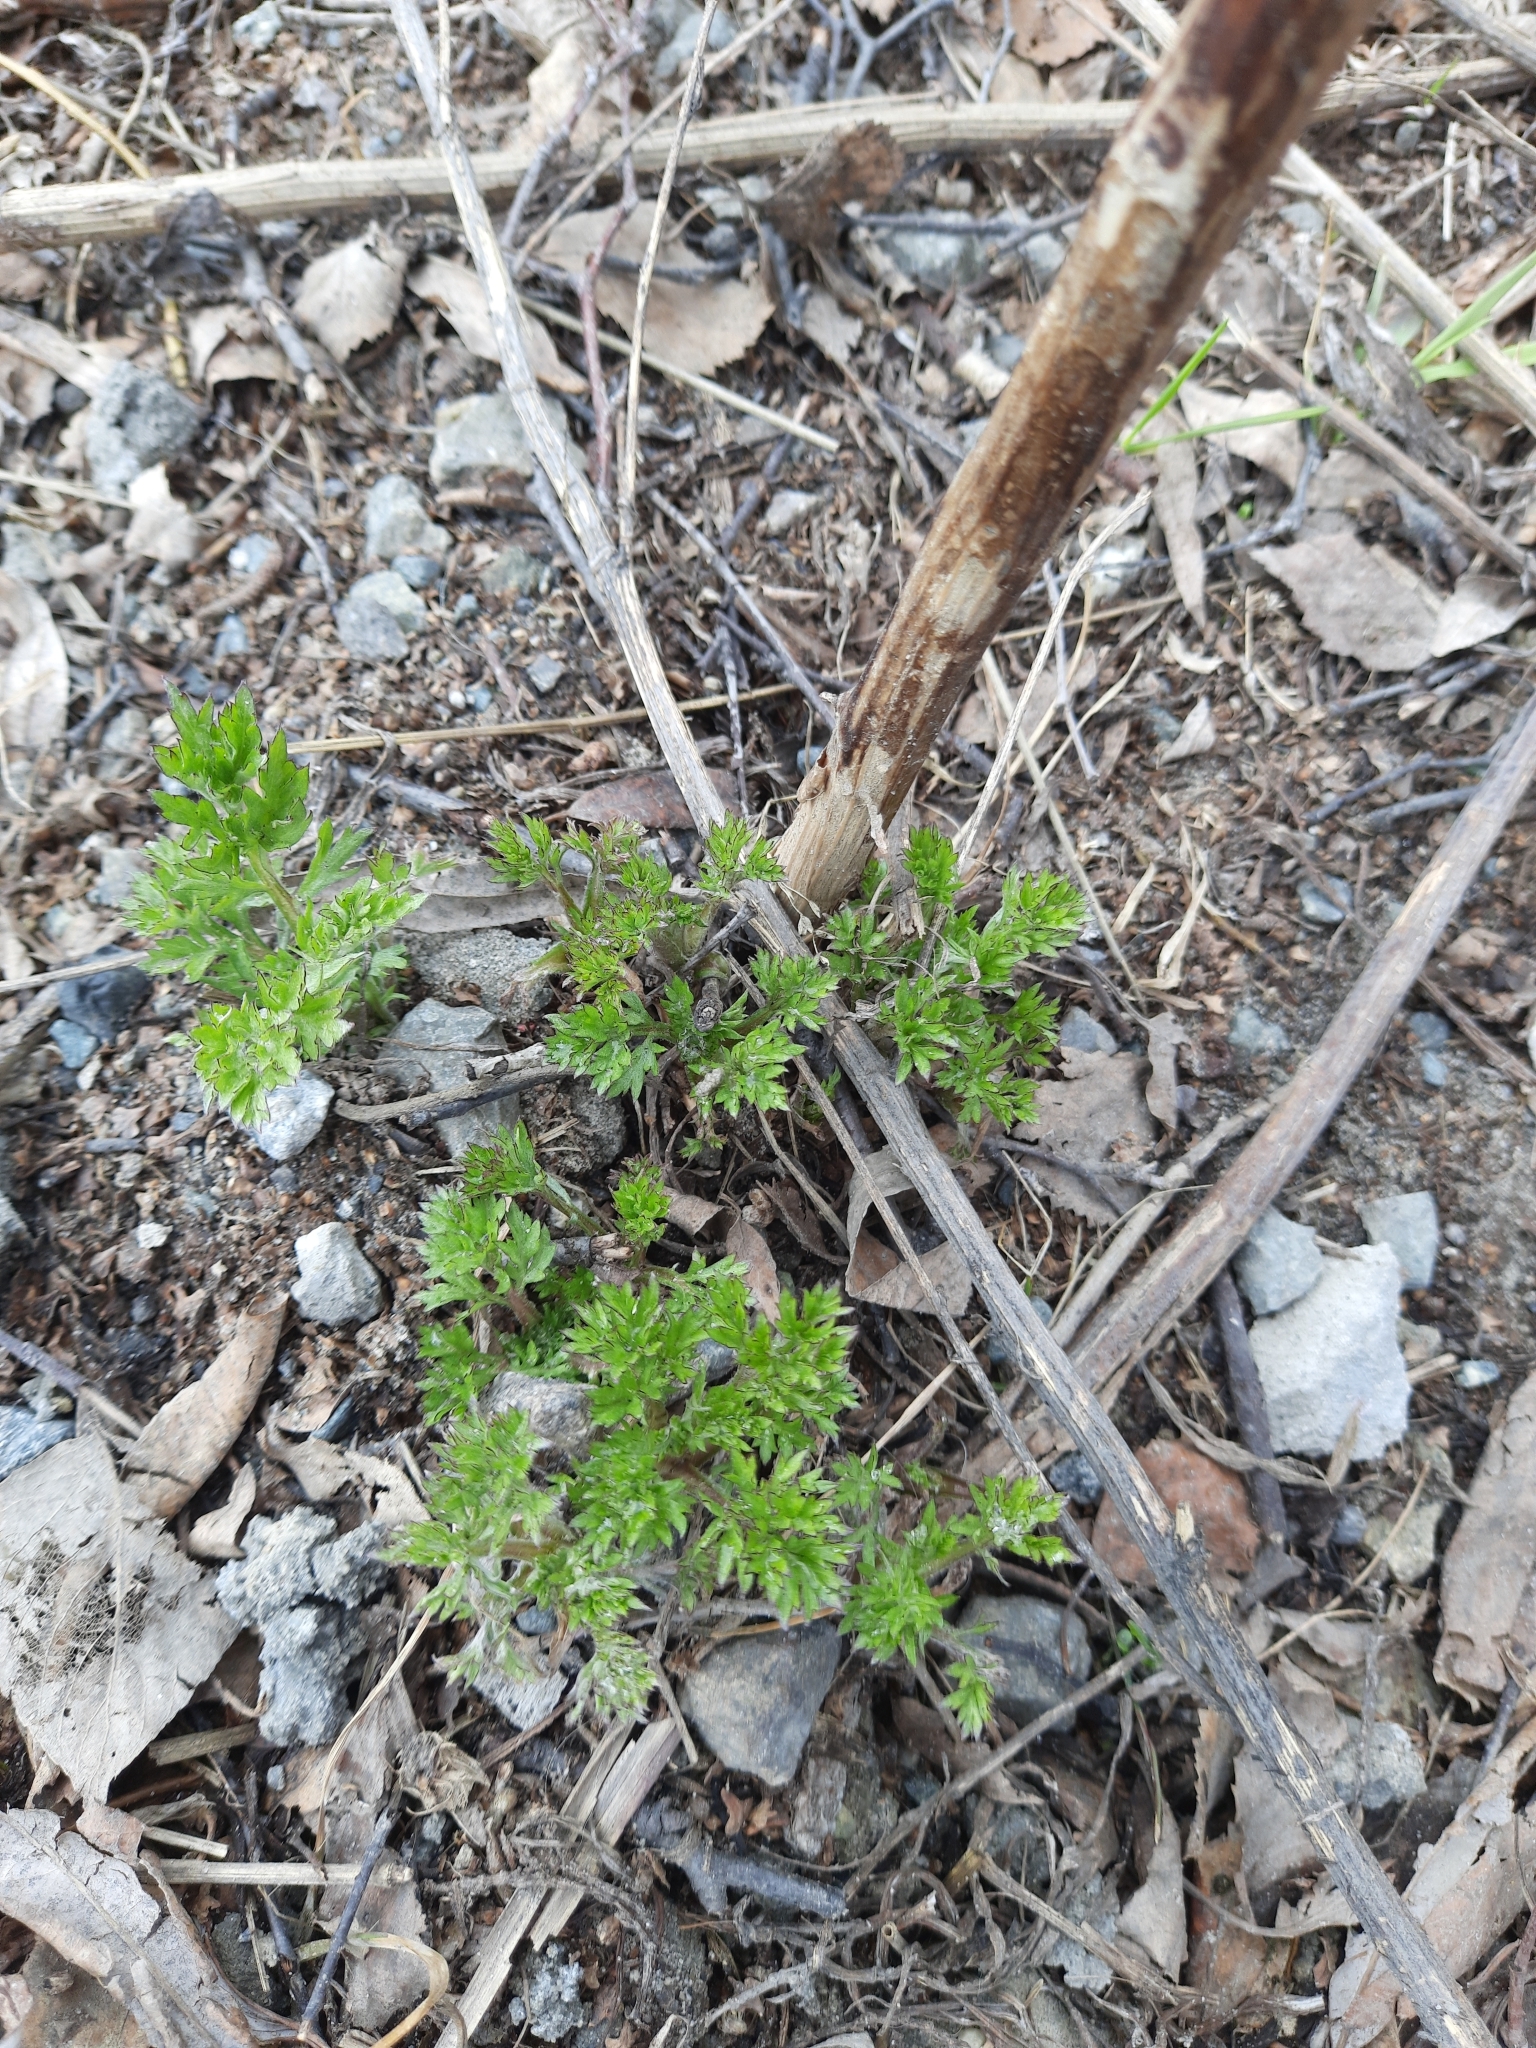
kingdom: Plantae
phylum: Tracheophyta
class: Magnoliopsida
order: Asterales
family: Asteraceae
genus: Artemisia
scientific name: Artemisia vulgaris
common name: Mugwort
